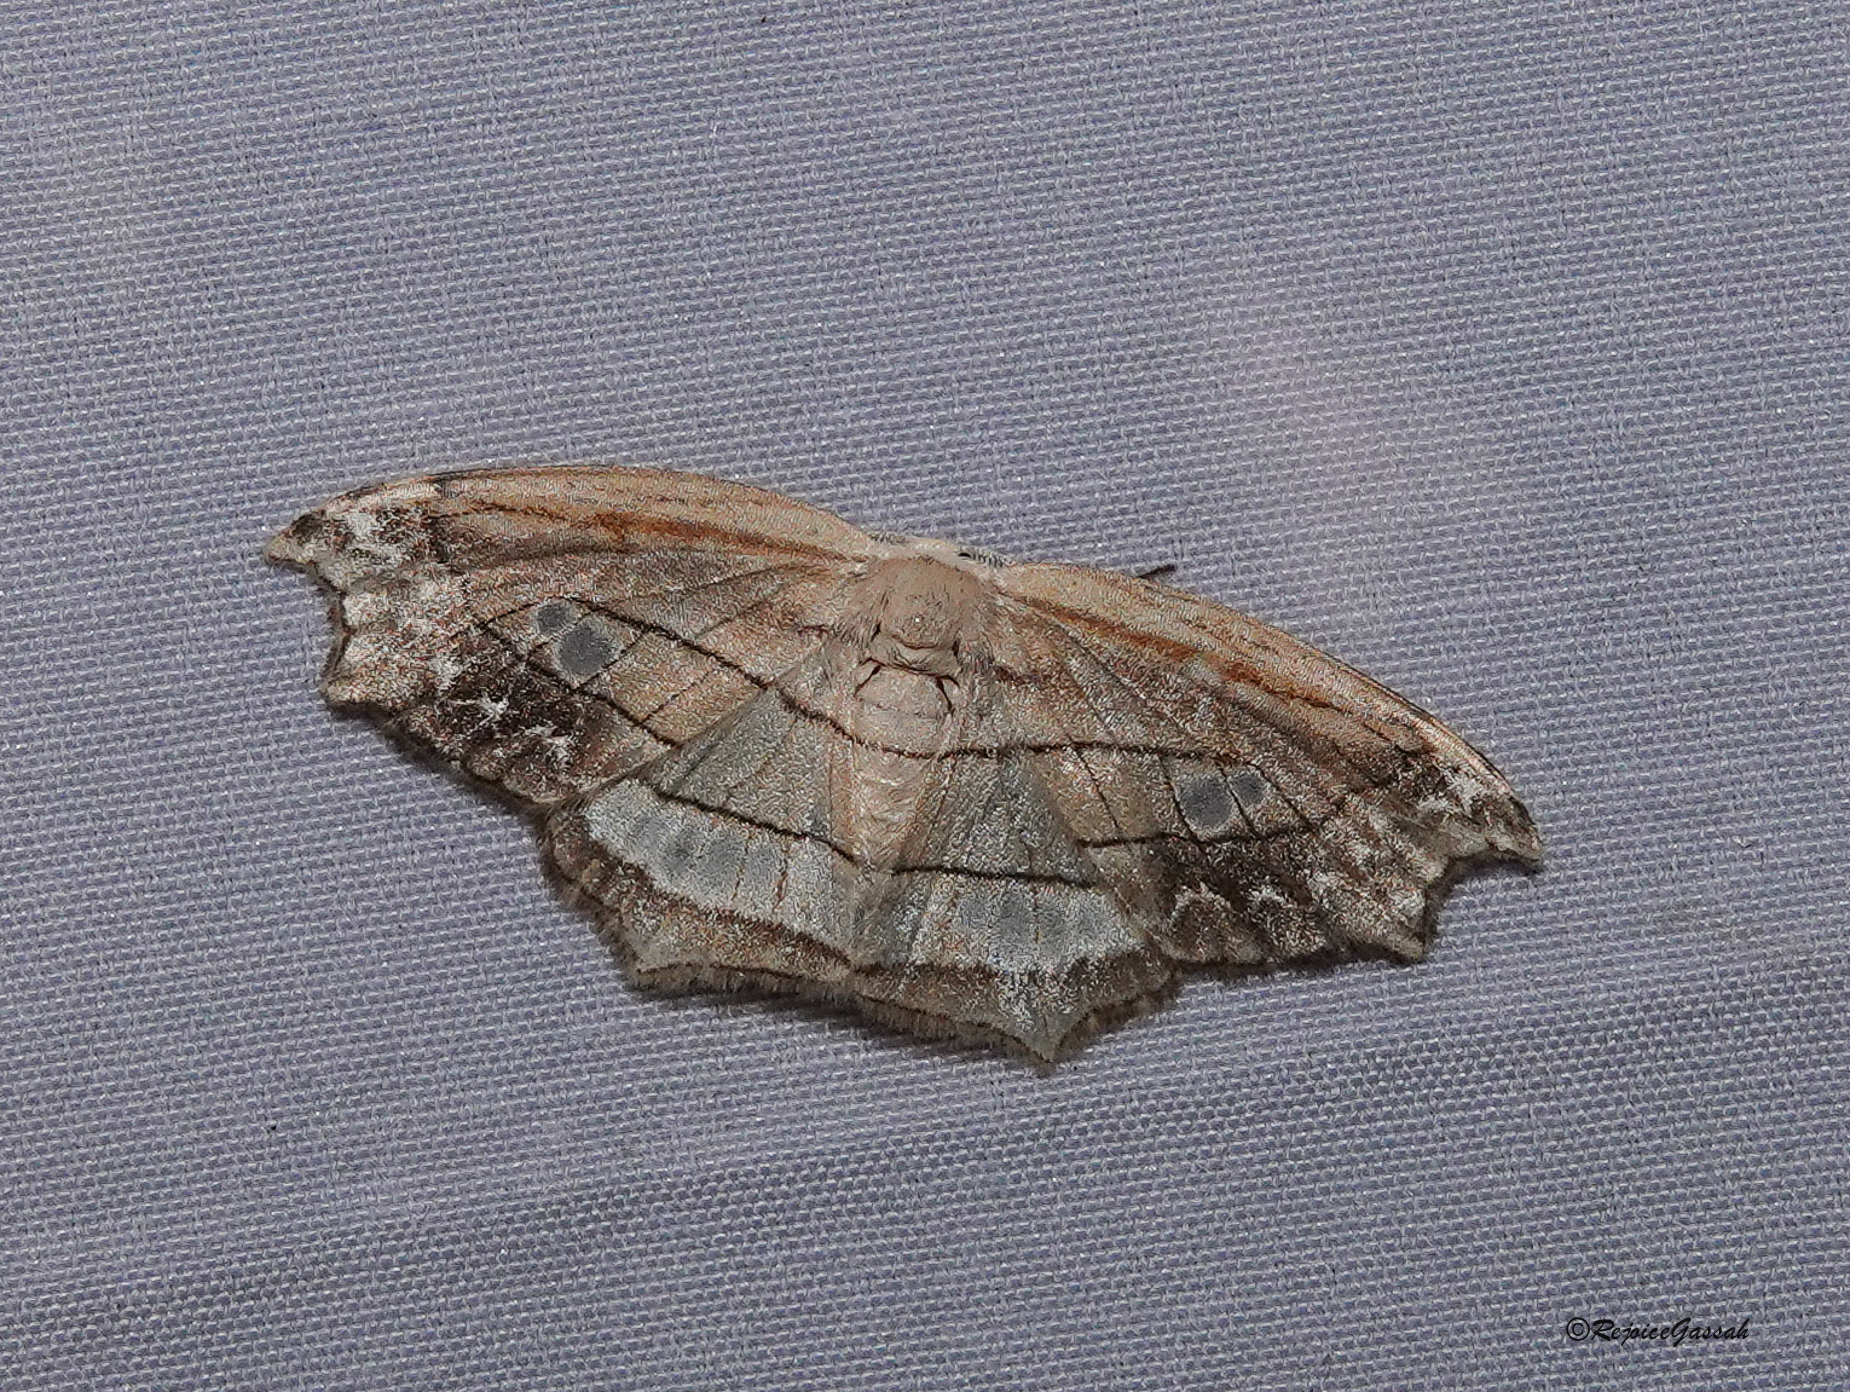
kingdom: Animalia
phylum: Arthropoda
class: Insecta
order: Lepidoptera
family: Drepanidae
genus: Leucoblepsis
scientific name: Leucoblepsis excisa
